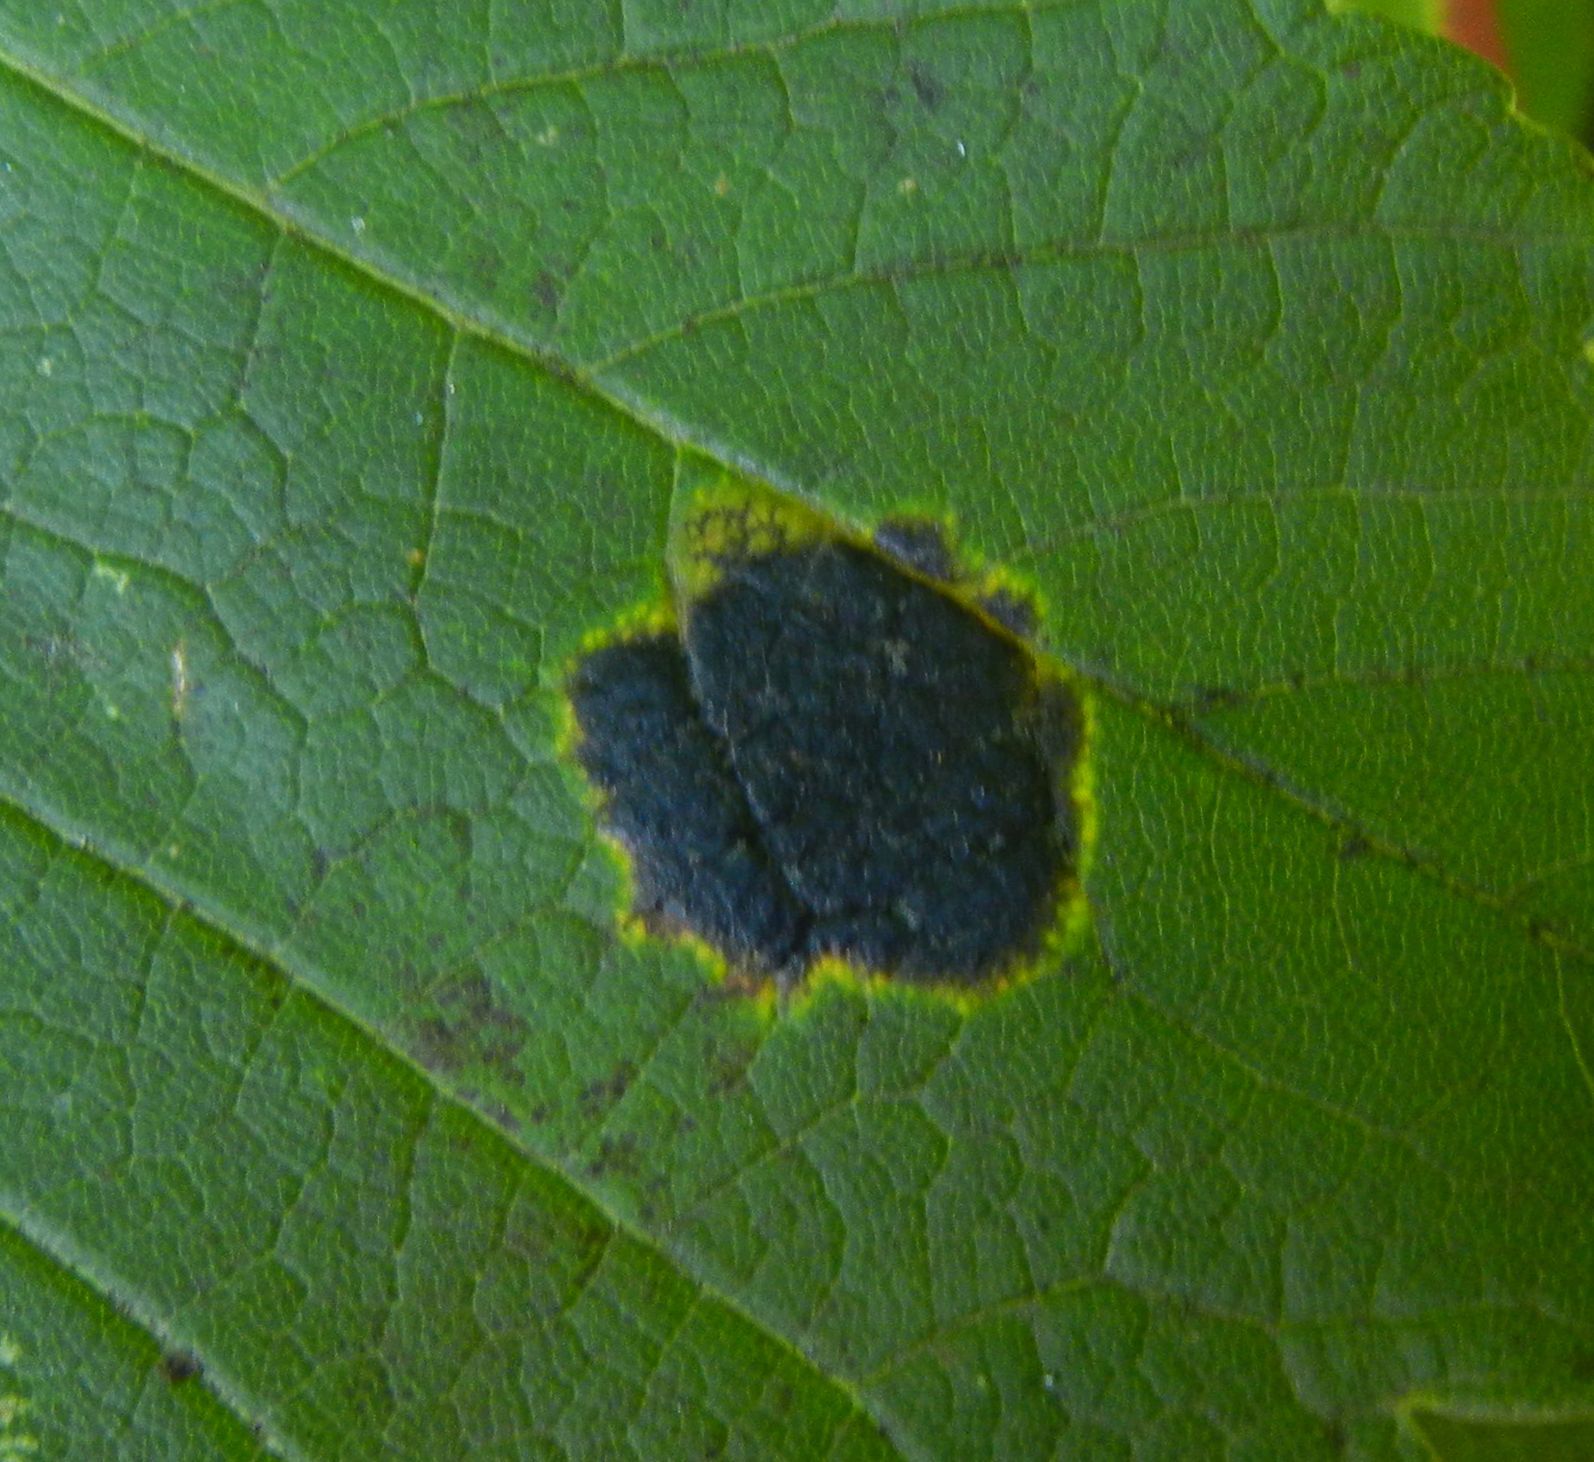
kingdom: Fungi
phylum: Ascomycota
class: Leotiomycetes
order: Rhytismatales
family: Rhytismataceae
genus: Rhytisma
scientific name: Rhytisma acerinum
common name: European tar spot
